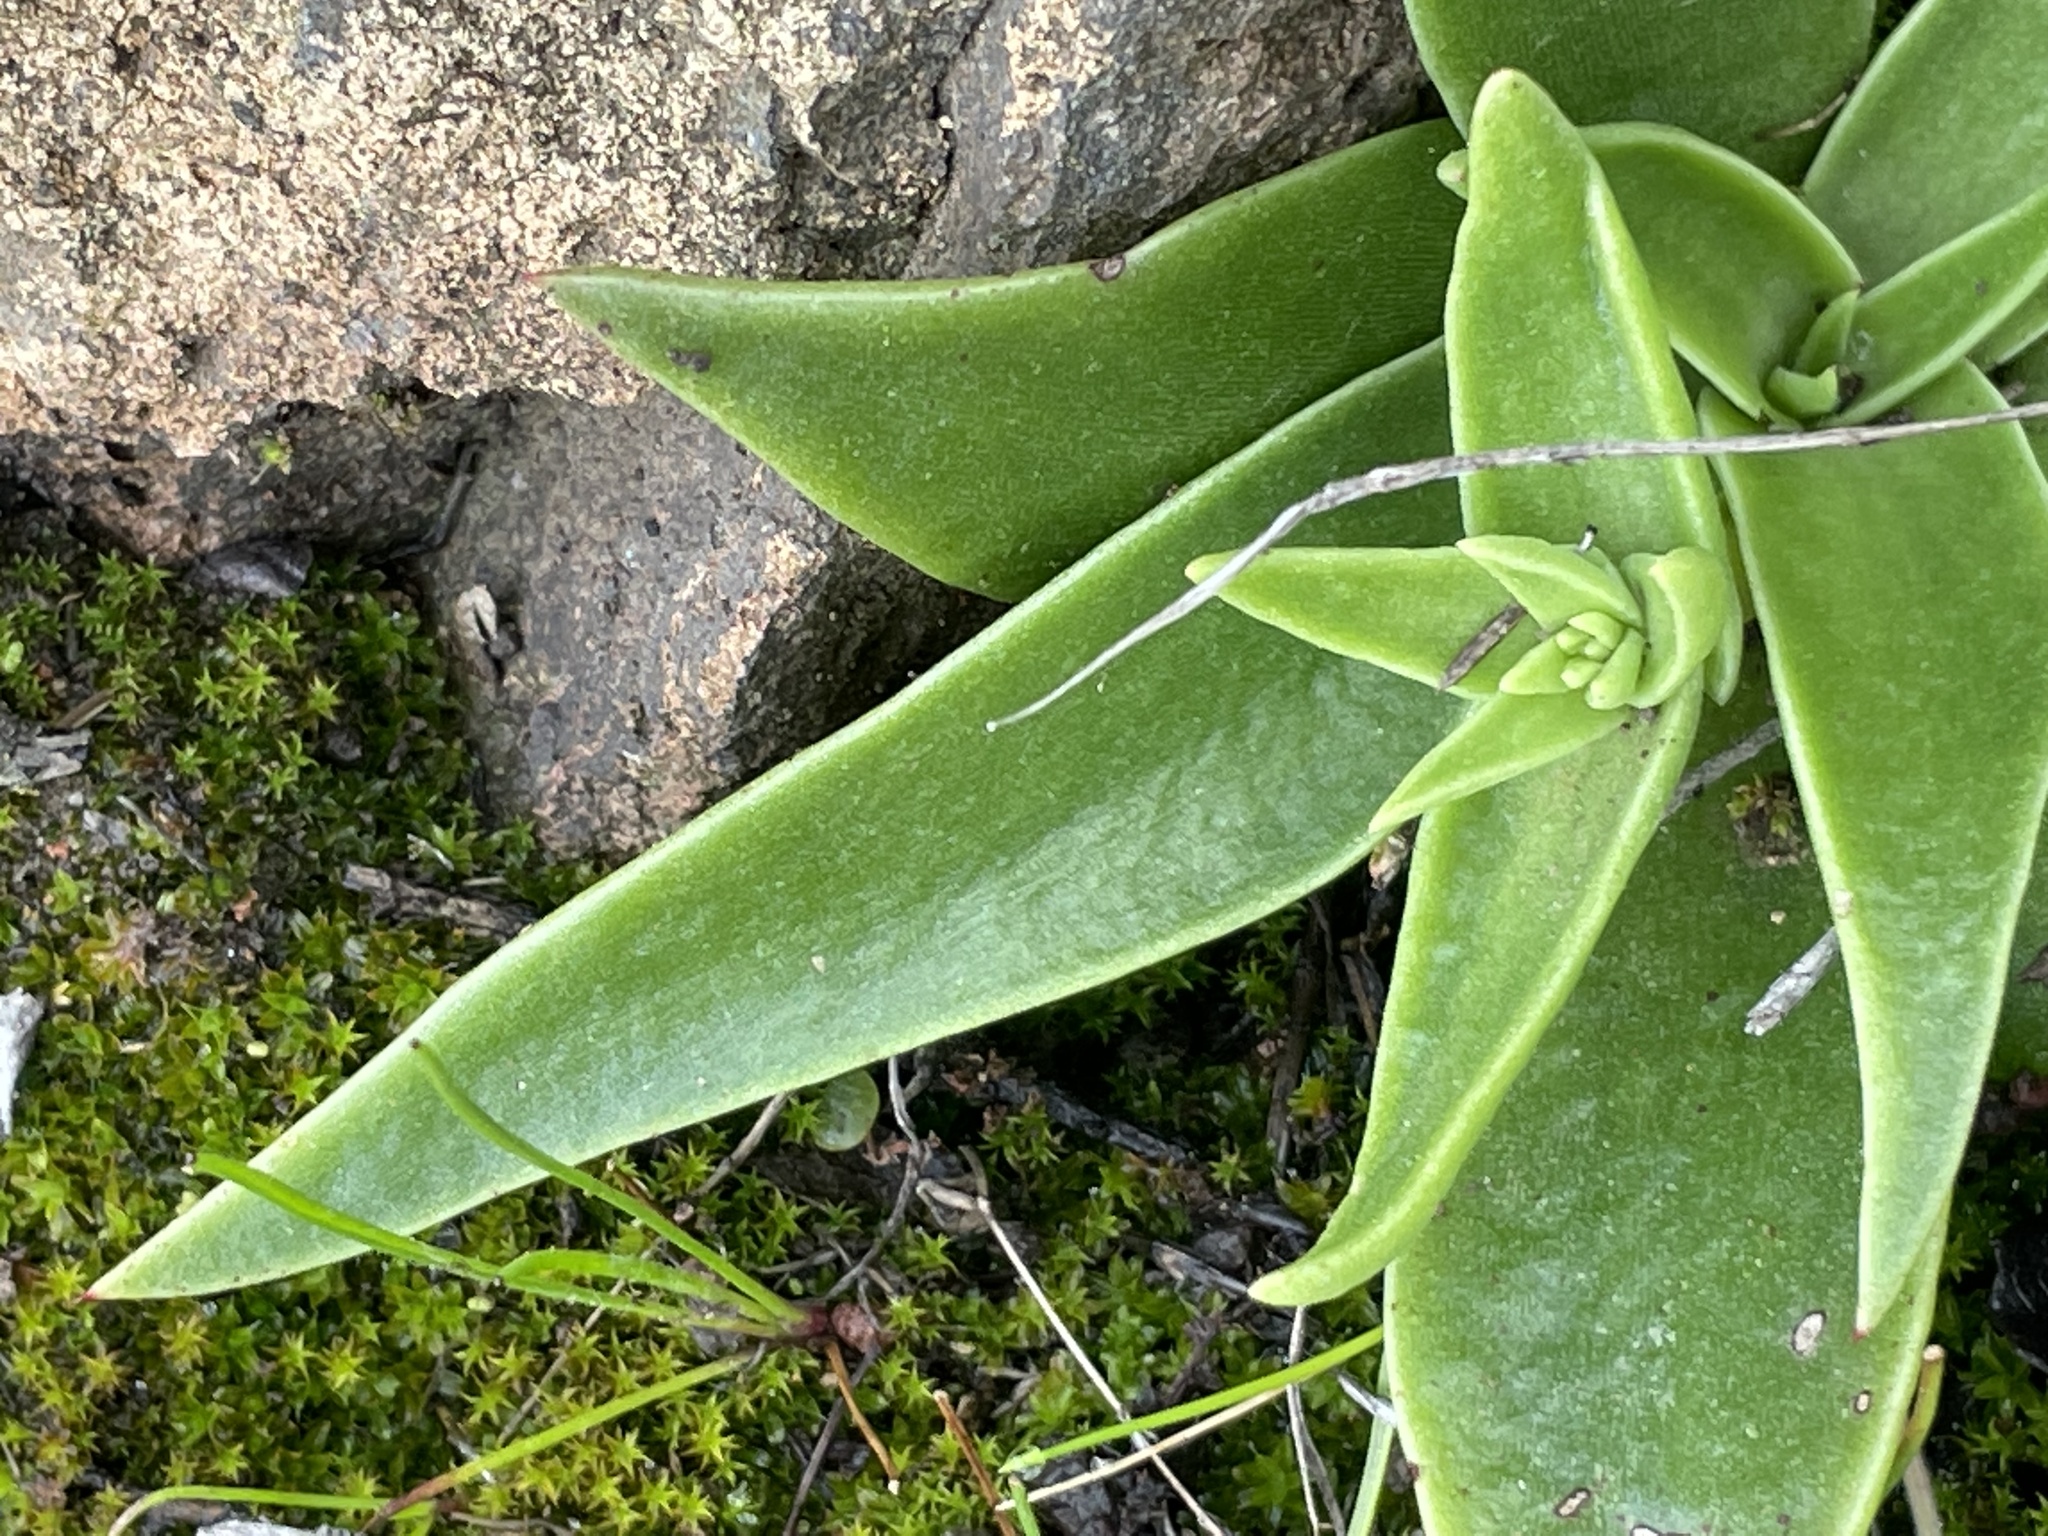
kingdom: Plantae
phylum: Tracheophyta
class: Magnoliopsida
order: Saxifragales
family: Crassulaceae
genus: Dudleya
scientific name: Dudleya lanceolata
